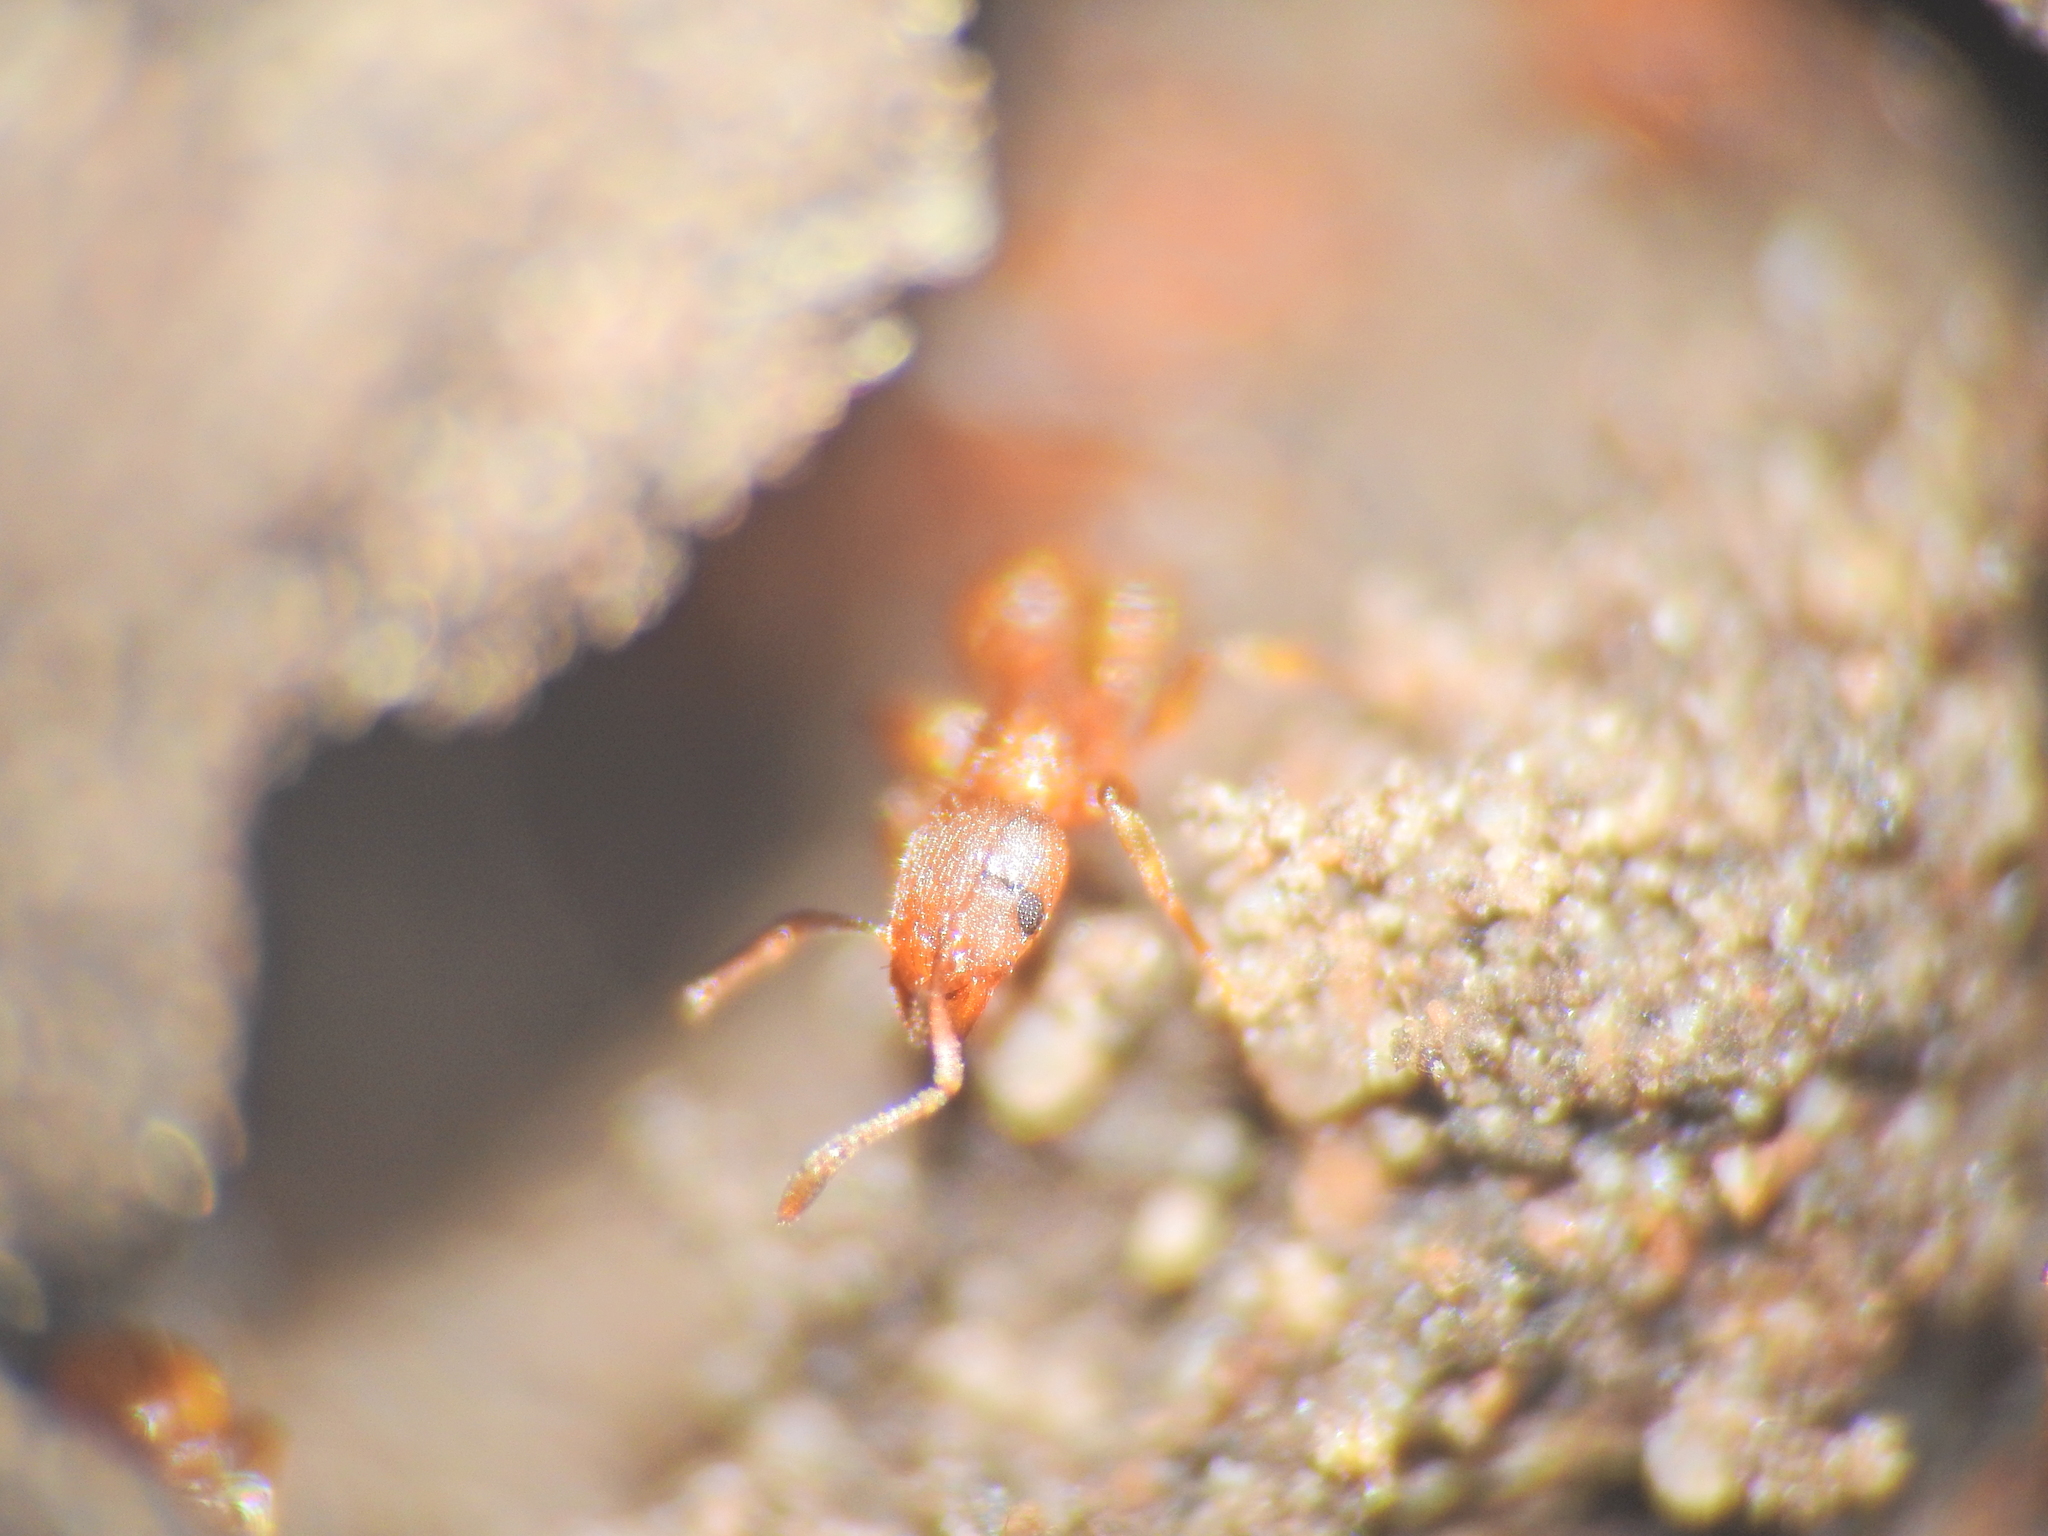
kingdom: Animalia
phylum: Arthropoda
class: Insecta
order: Hymenoptera
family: Formicidae
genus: Tetramorium
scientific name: Tetramorium simillimum
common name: Ant
